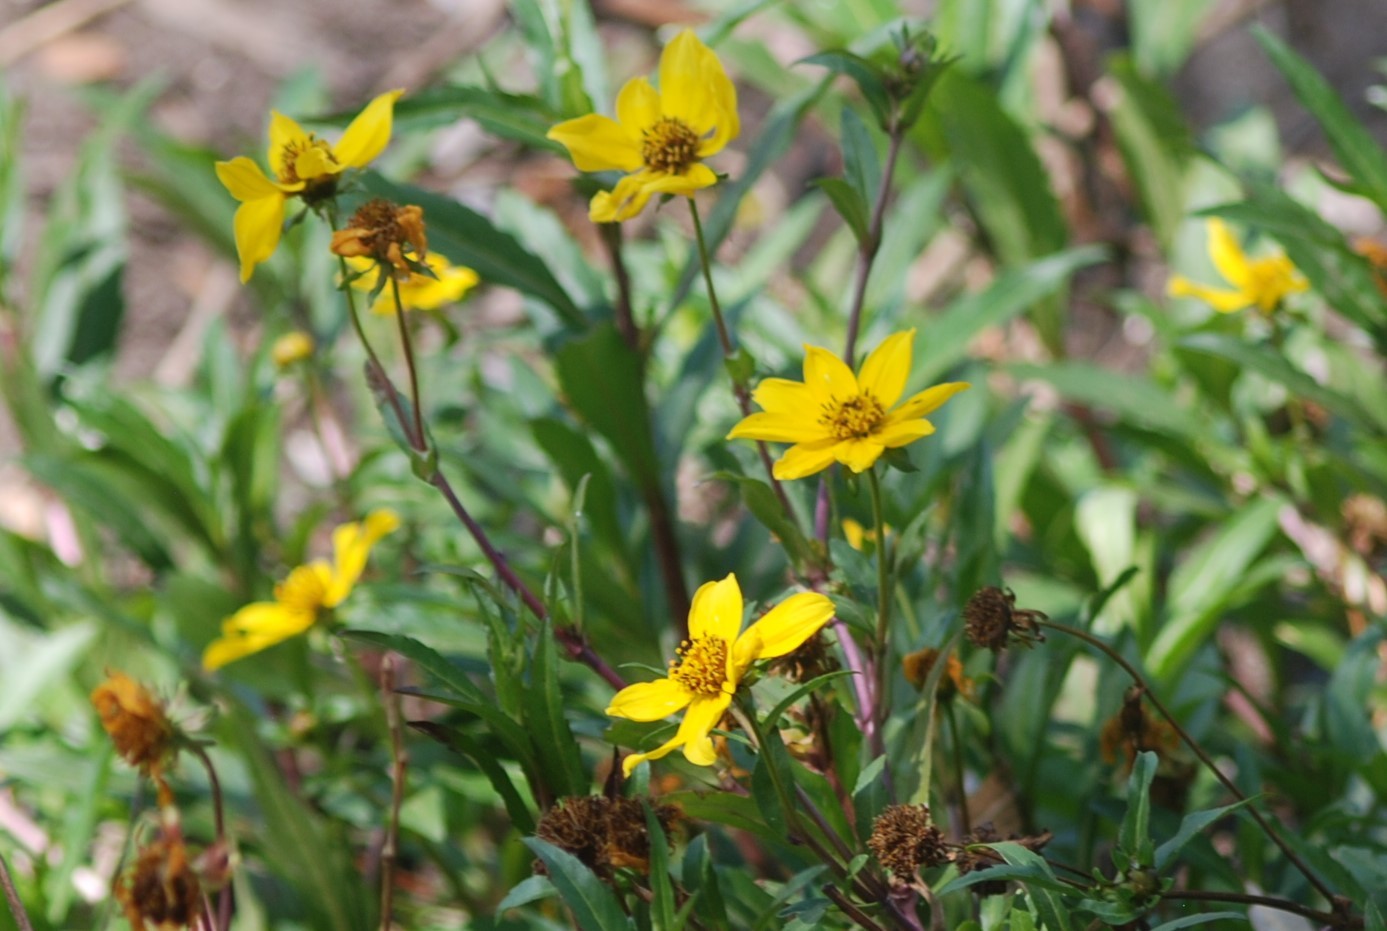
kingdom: Plantae
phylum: Tracheophyta
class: Magnoliopsida
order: Asterales
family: Asteraceae
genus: Bidens
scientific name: Bidens laevis
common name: Larger bur-marigold
